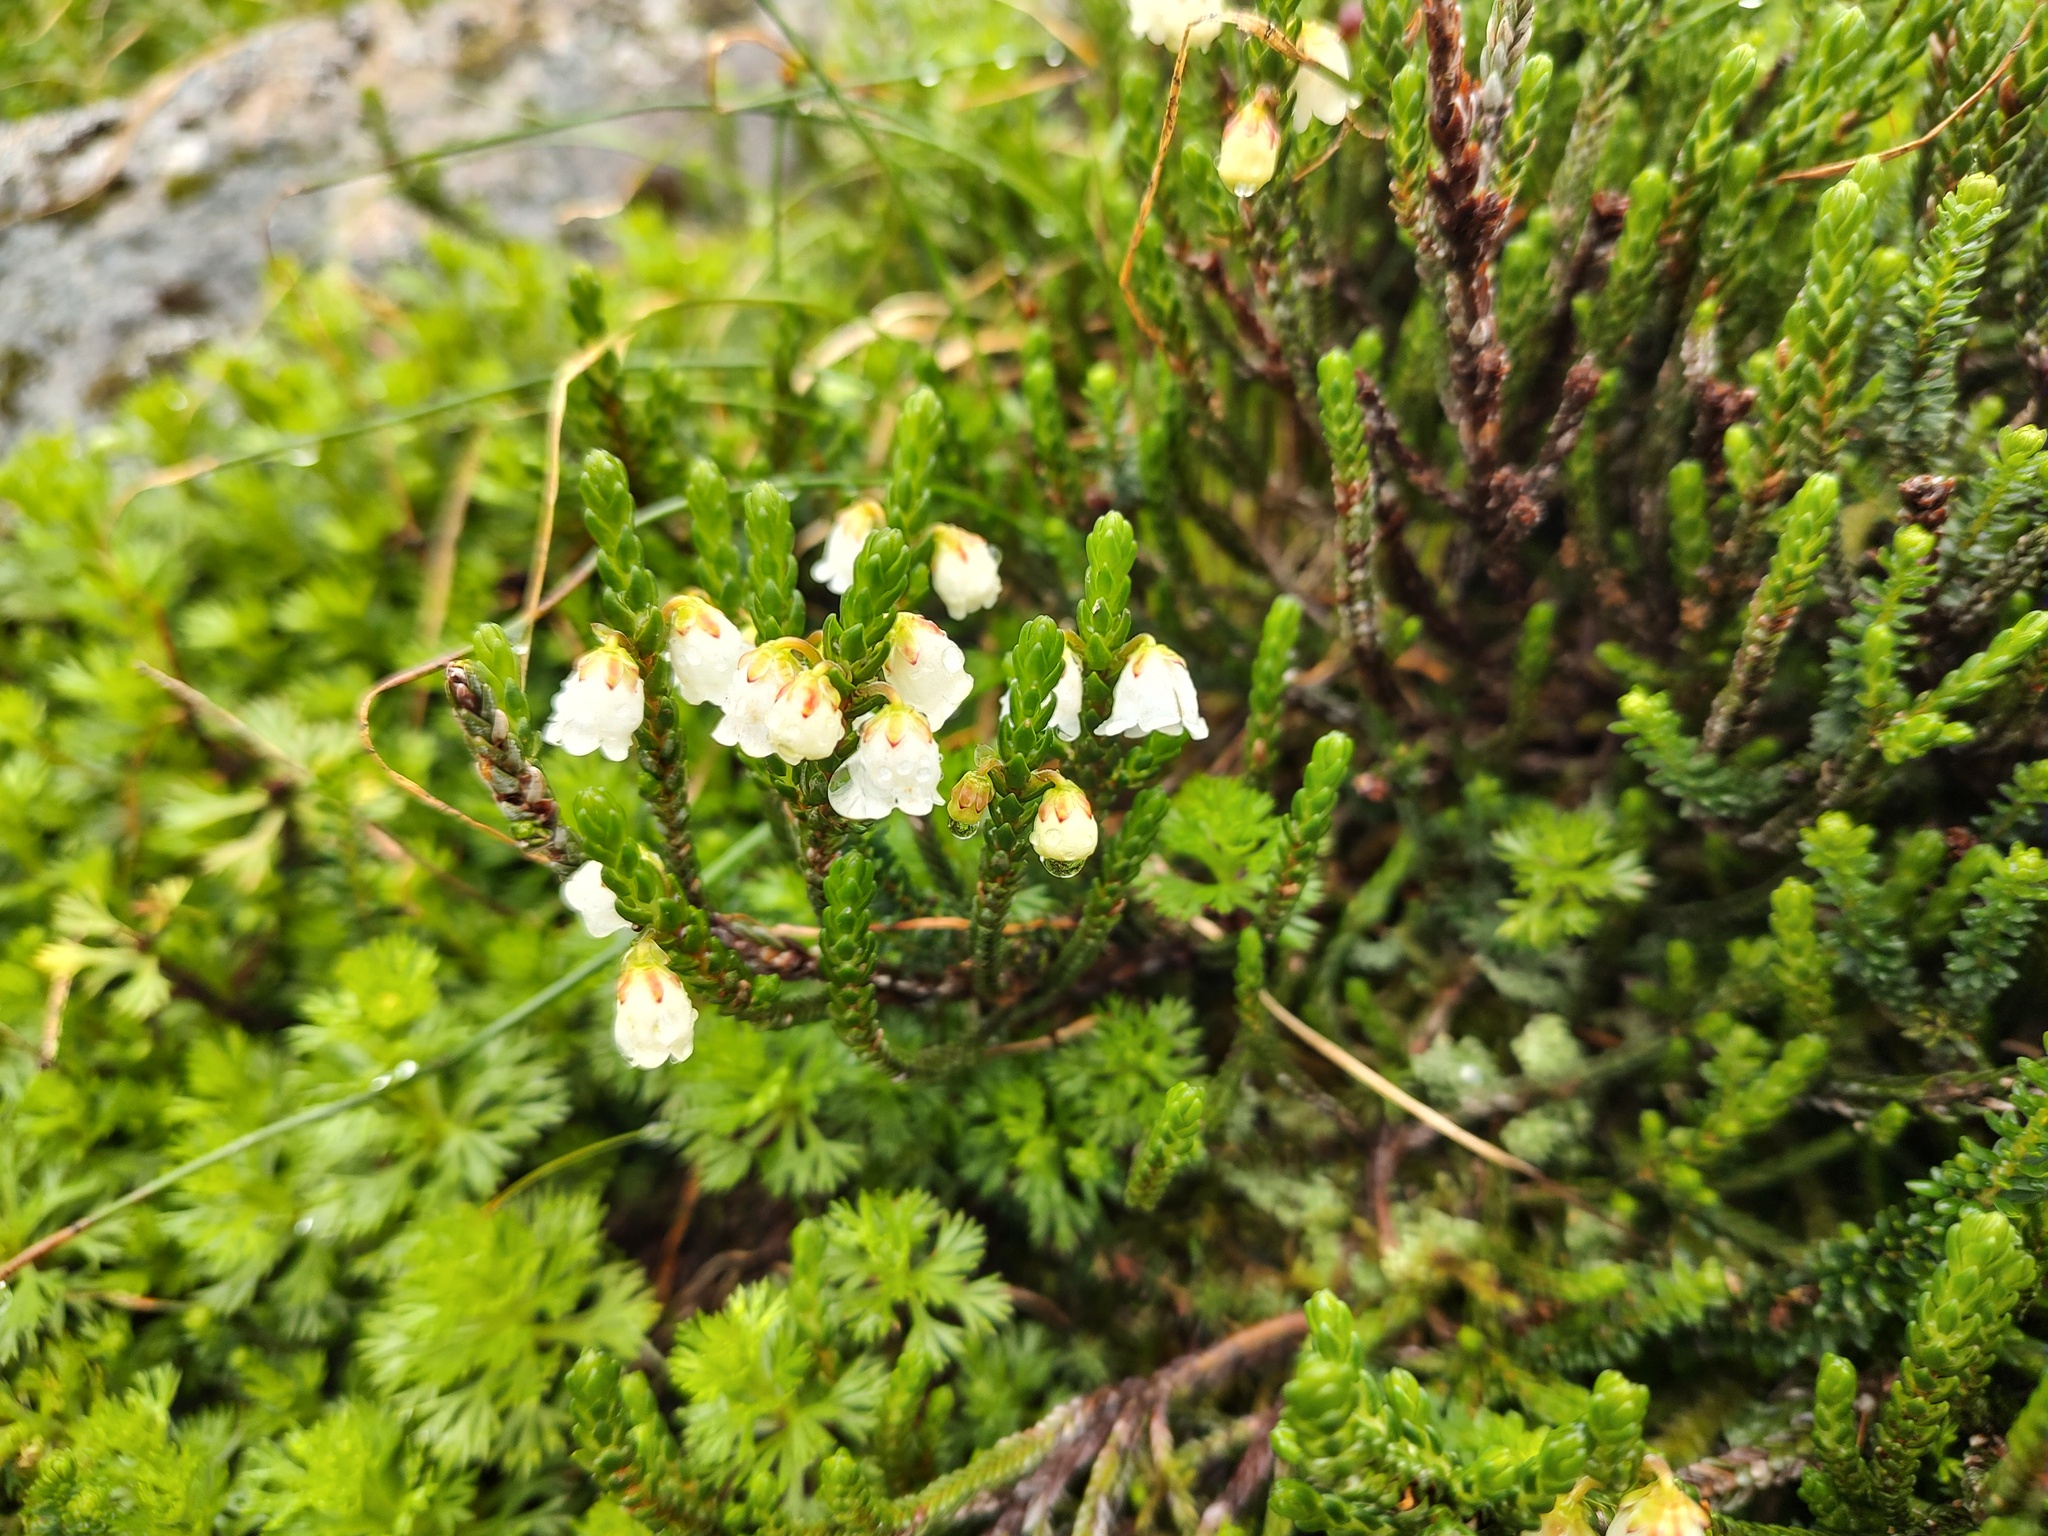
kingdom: Plantae
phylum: Tracheophyta
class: Magnoliopsida
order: Ericales
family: Ericaceae
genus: Cassiope
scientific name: Cassiope mertensiana
